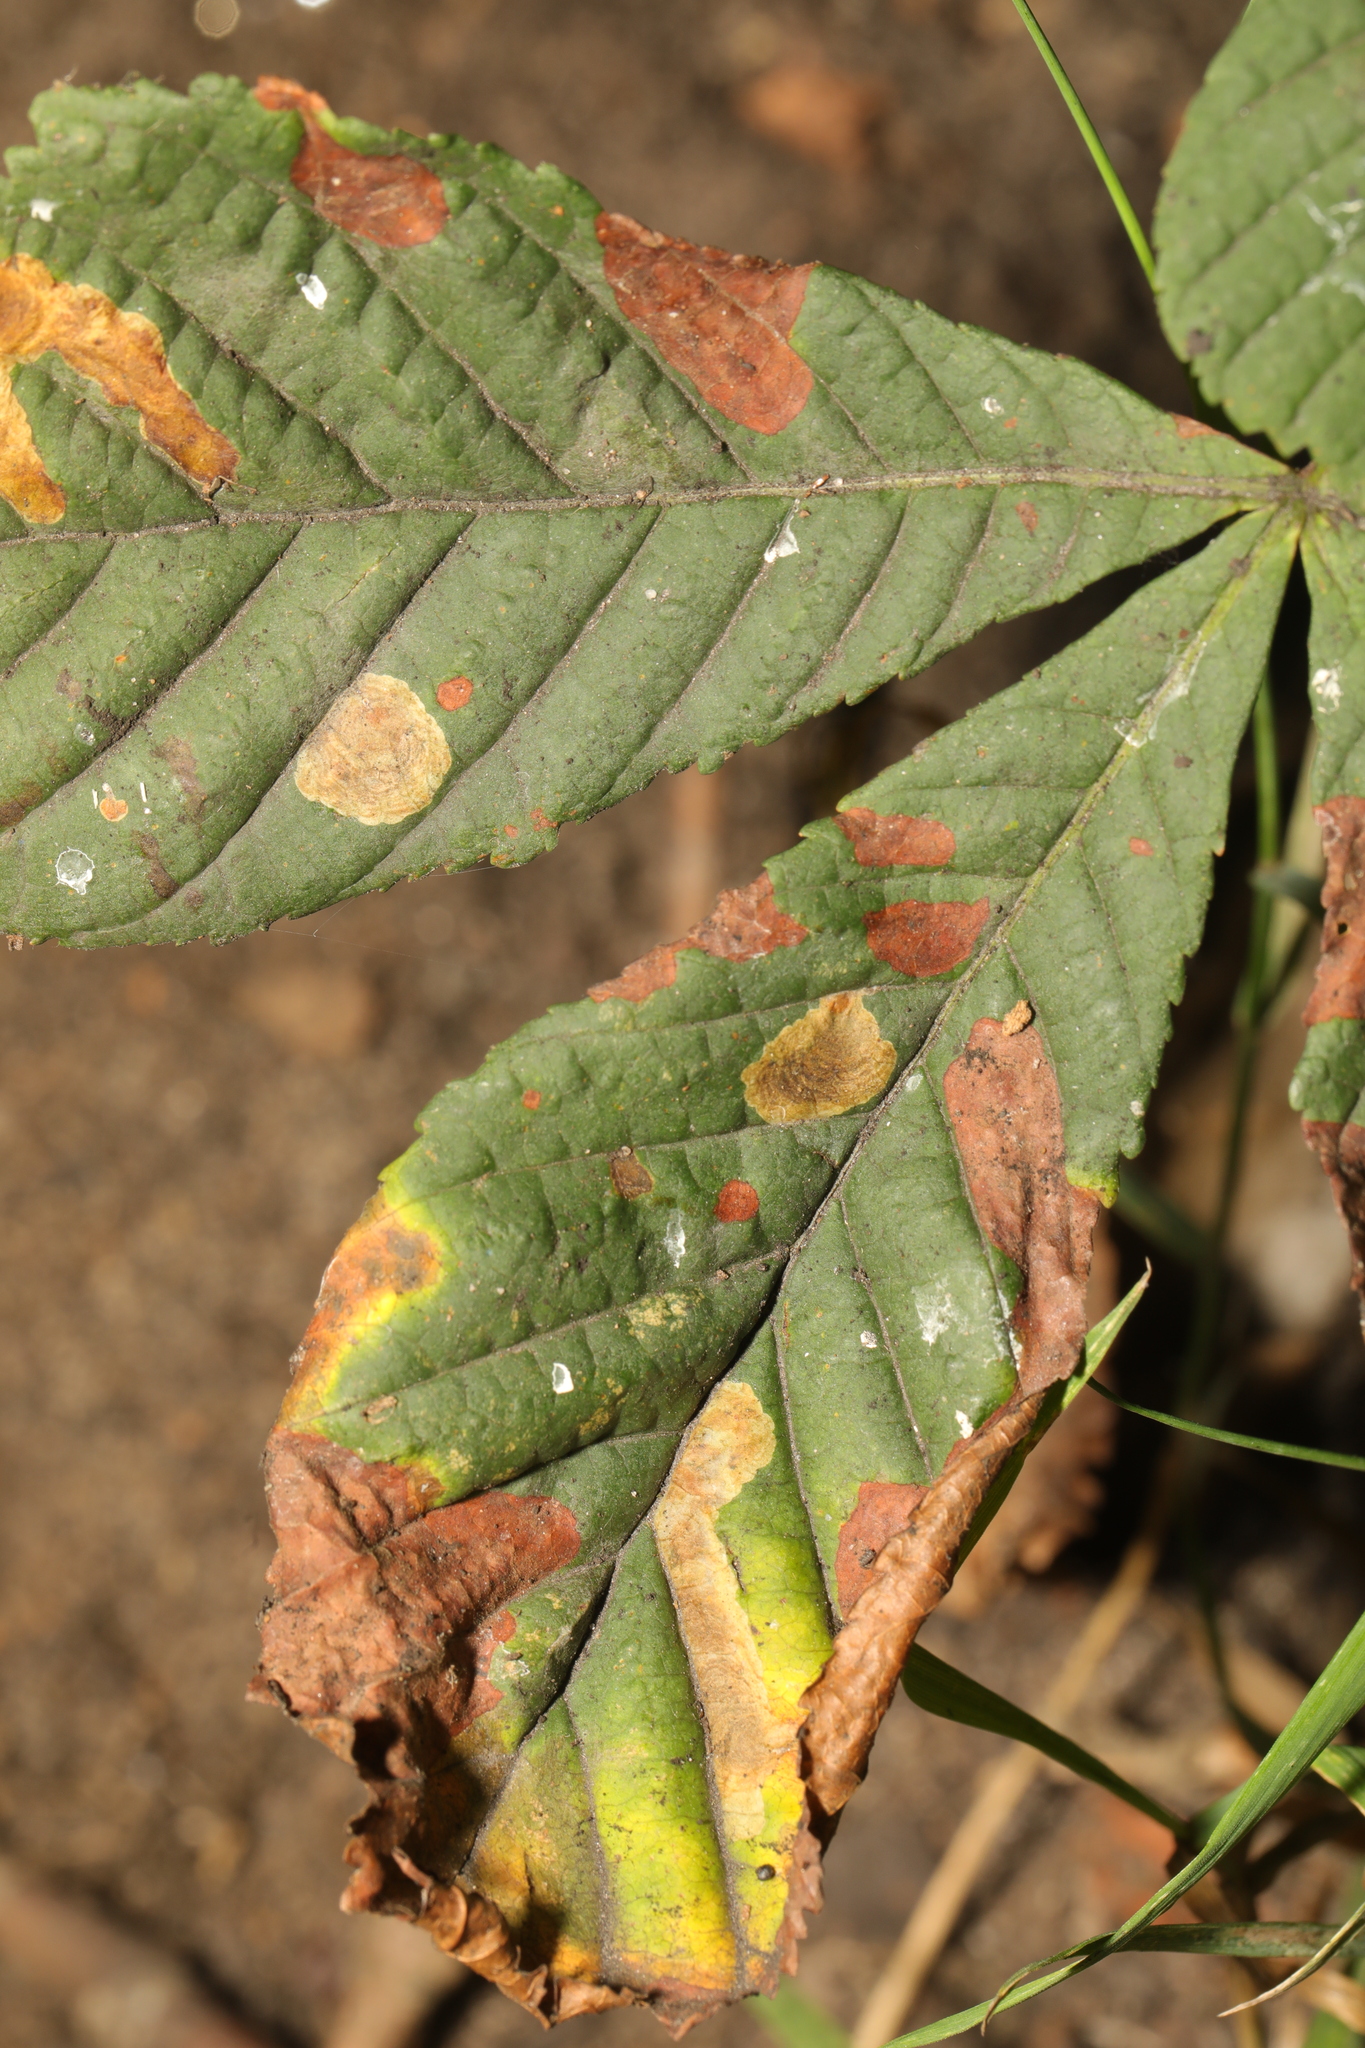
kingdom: Animalia
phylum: Arthropoda
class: Insecta
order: Lepidoptera
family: Gracillariidae
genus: Cameraria
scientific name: Cameraria ohridella
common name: Horse-chestnut leaf-miner
